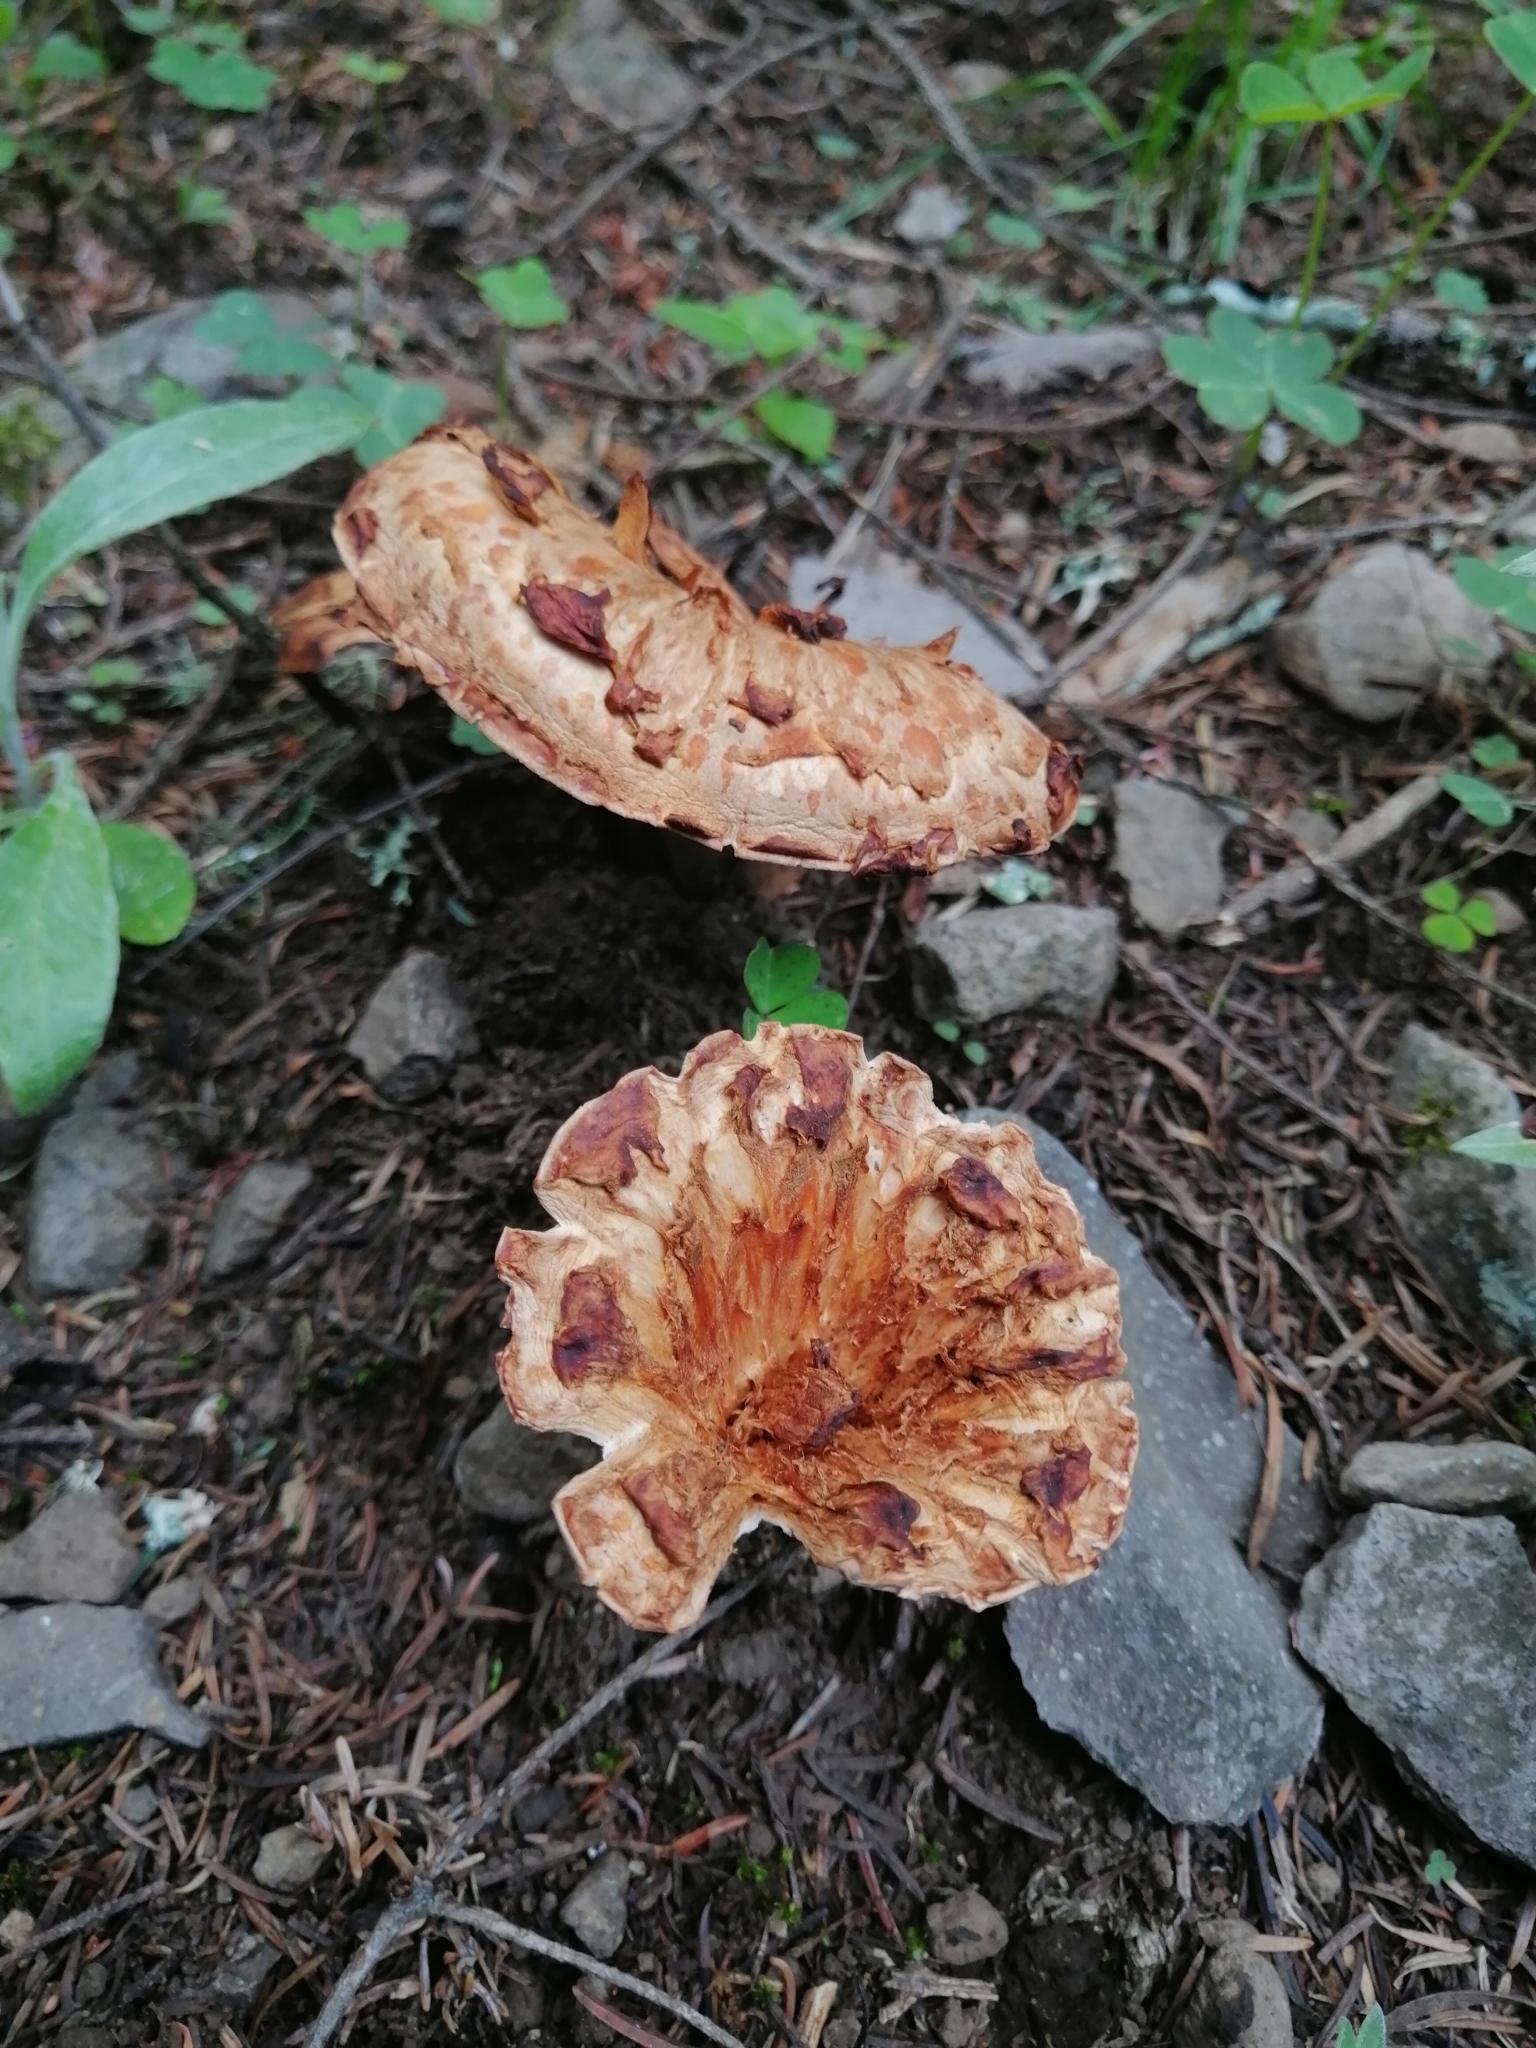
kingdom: Fungi
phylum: Basidiomycota
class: Agaricomycetes
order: Gomphales
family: Gomphaceae
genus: Turbinellus
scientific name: Turbinellus floccosus
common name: Scaly chanterelle
